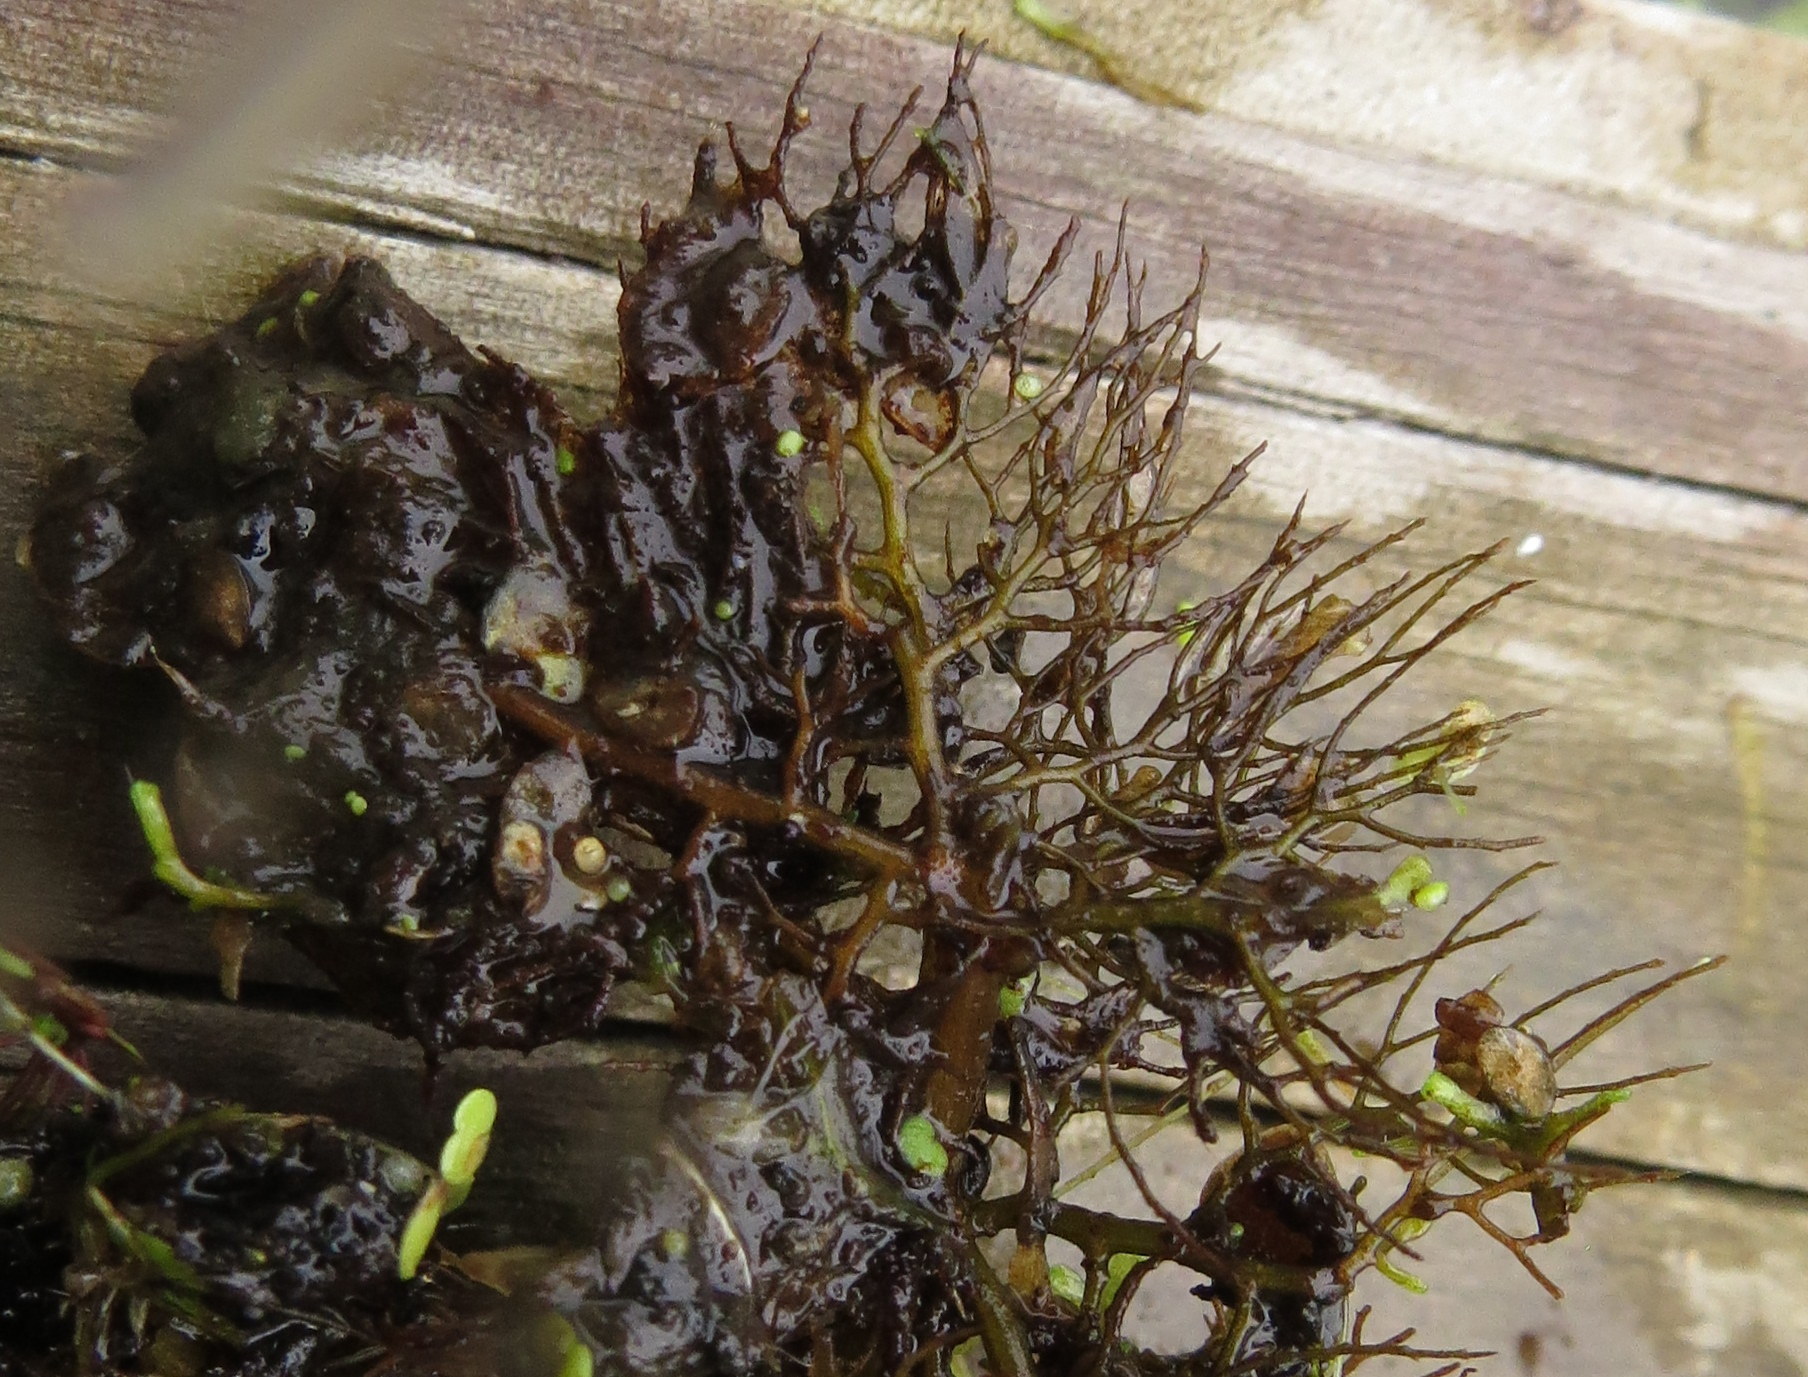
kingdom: Plantae
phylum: Tracheophyta
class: Magnoliopsida
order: Lamiales
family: Lentibulariaceae
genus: Utricularia
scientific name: Utricularia macrorhiza
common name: Common bladderwort
